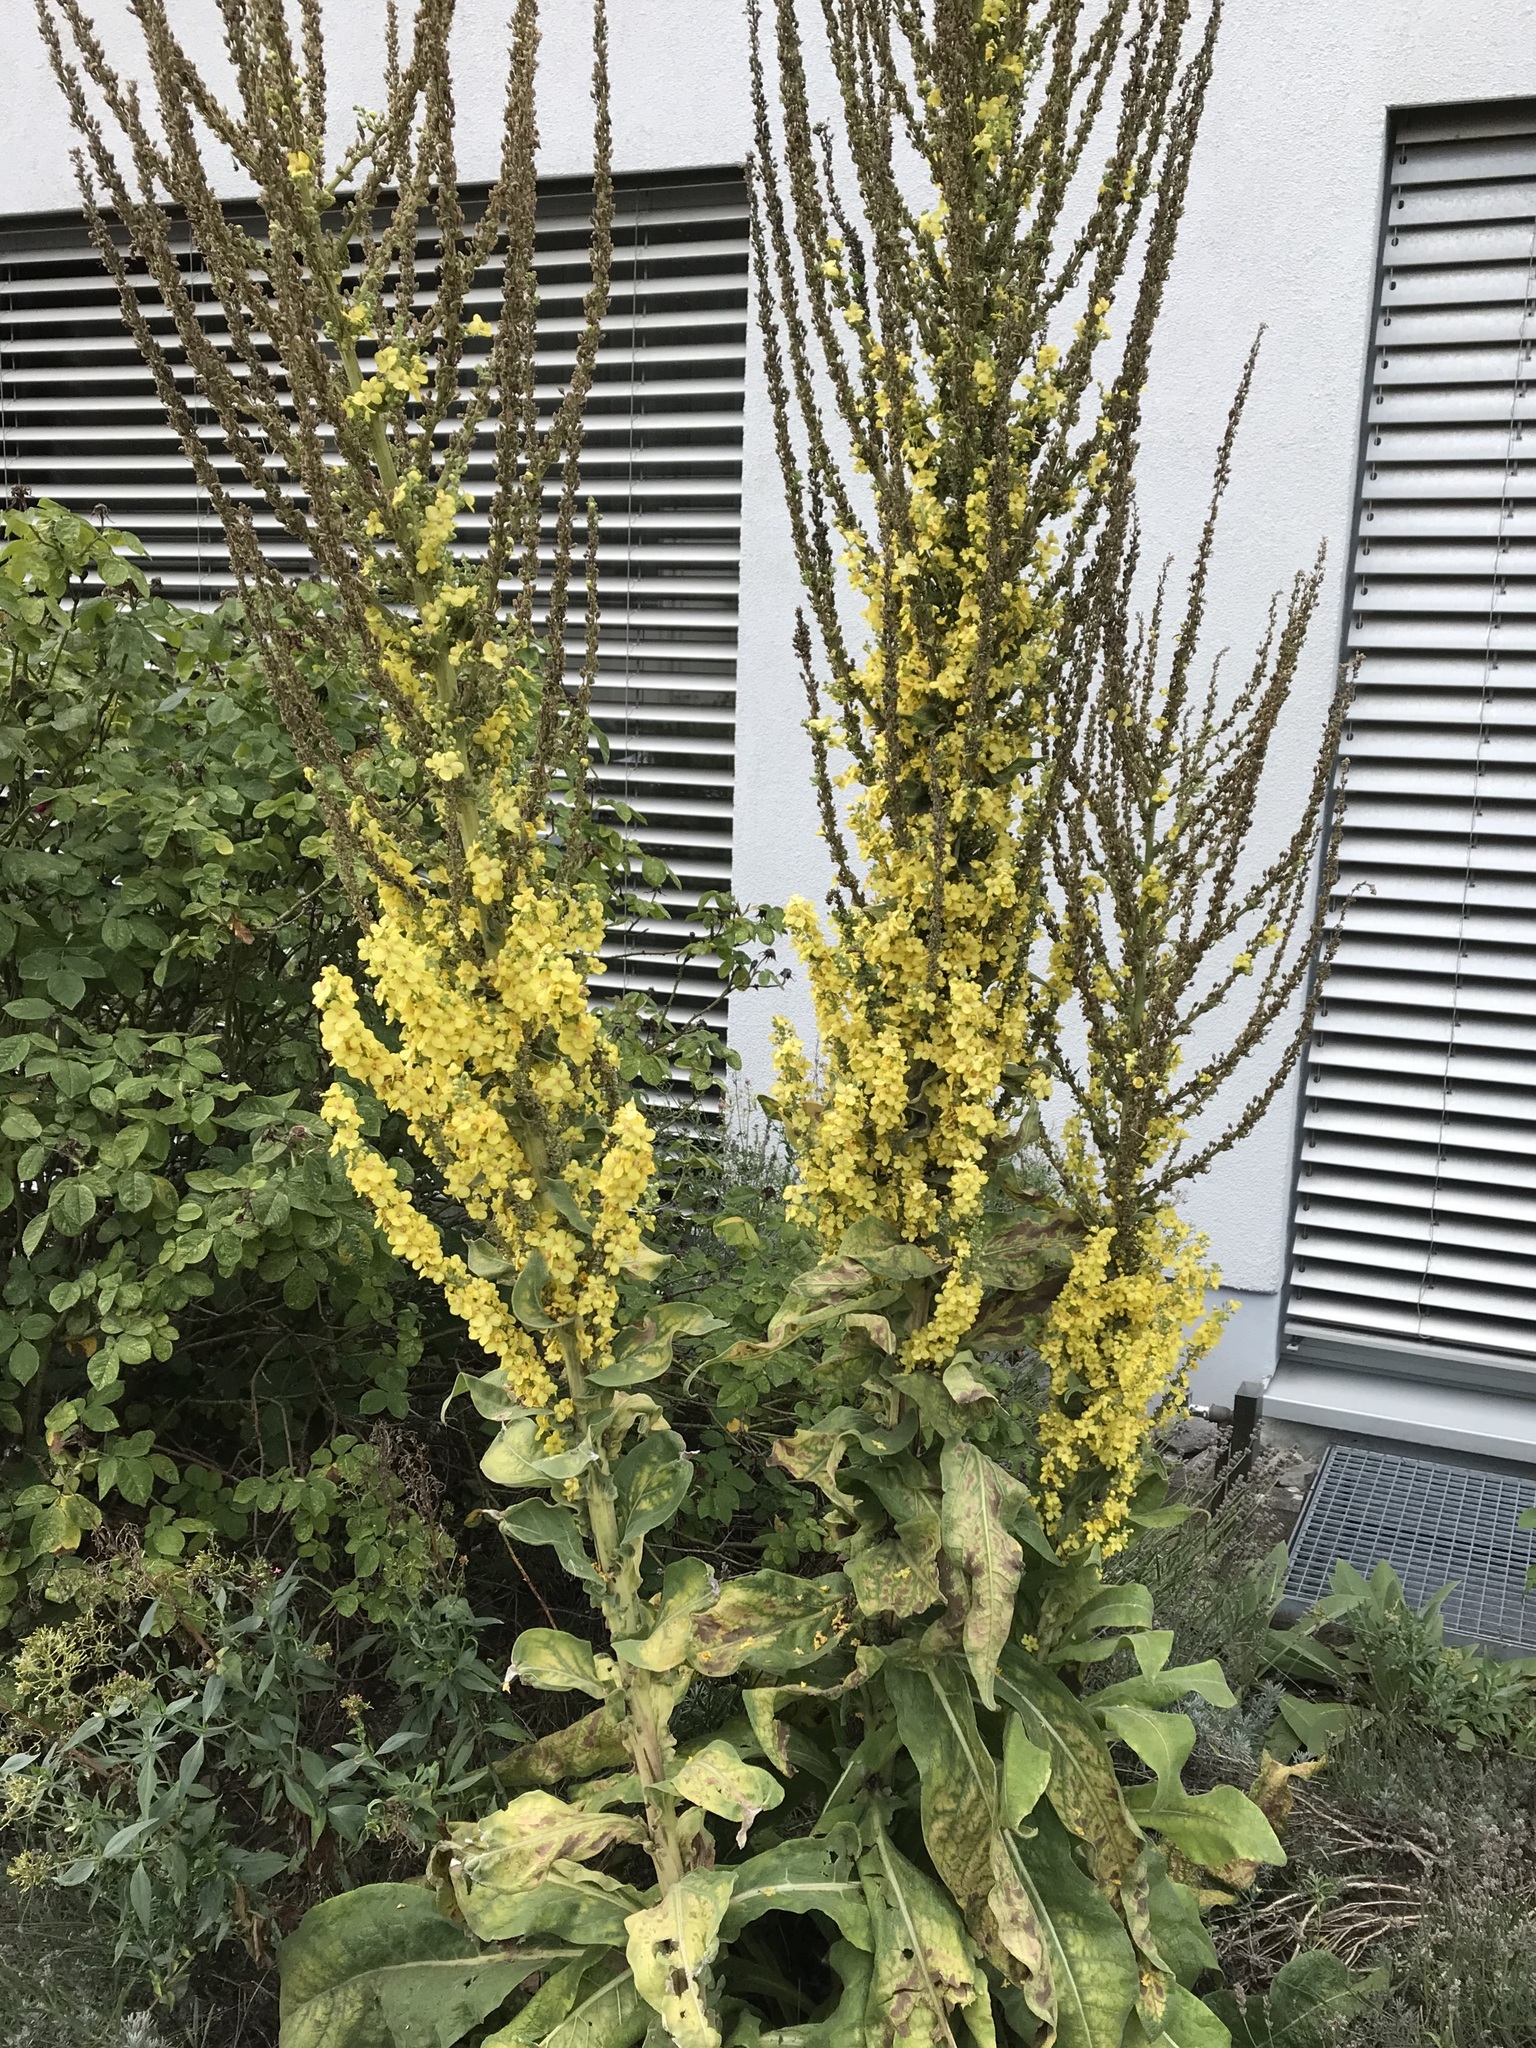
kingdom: Plantae
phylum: Tracheophyta
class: Magnoliopsida
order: Lamiales
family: Scrophulariaceae
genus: Verbascum
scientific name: Verbascum speciosum
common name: Hungarian mullein
